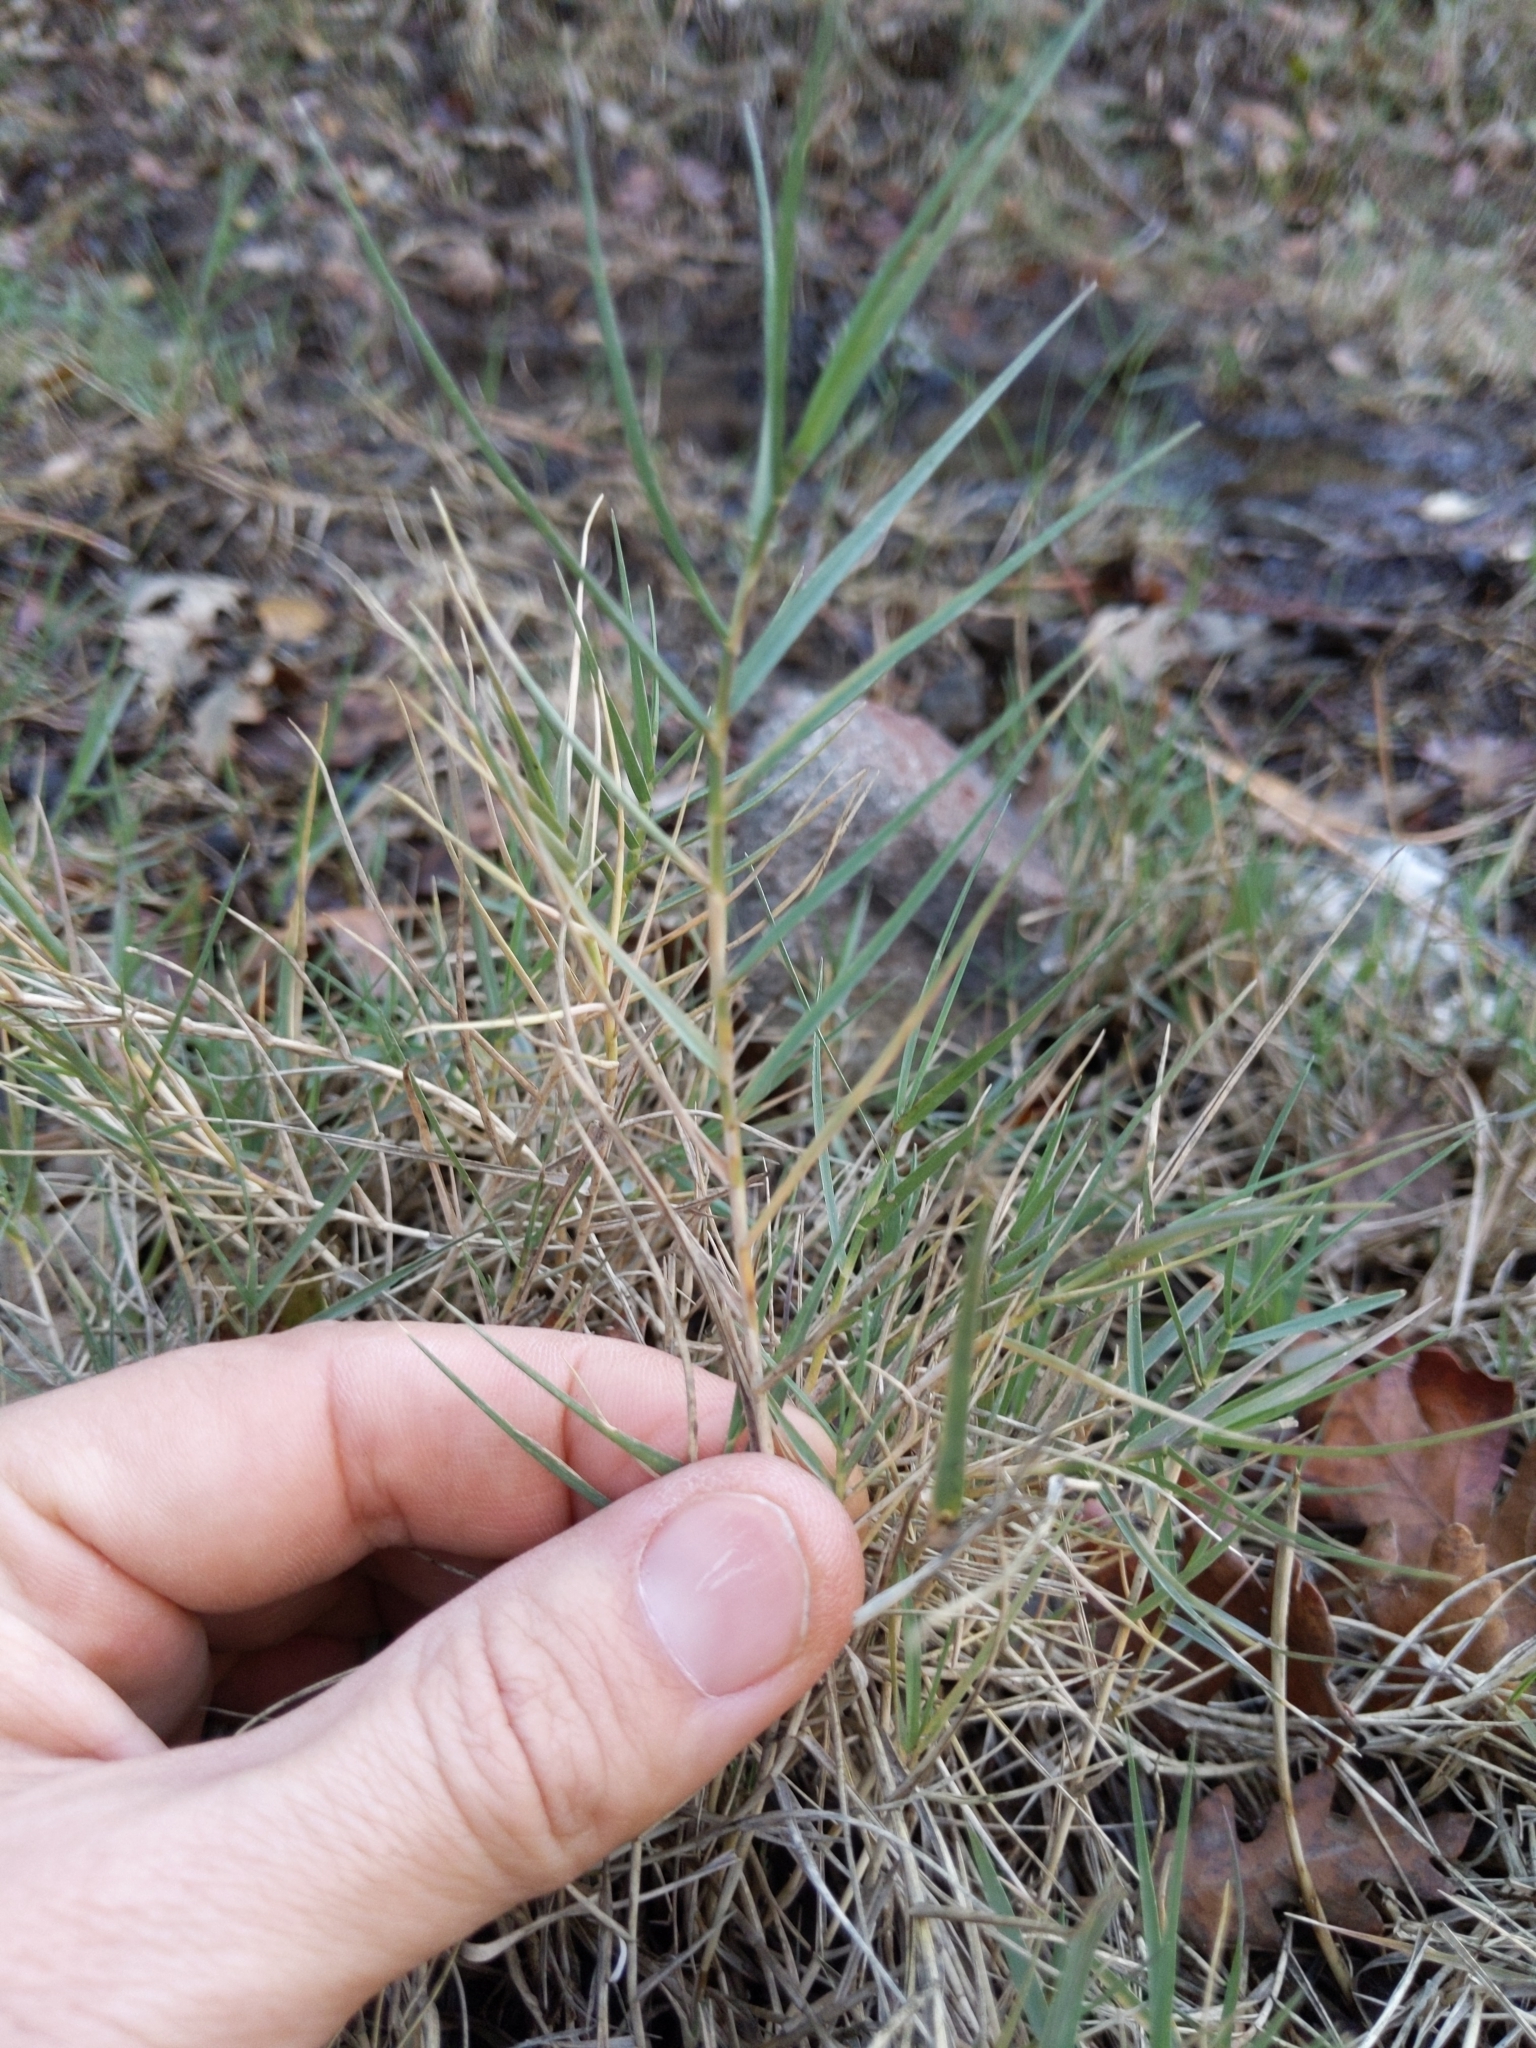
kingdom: Plantae
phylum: Tracheophyta
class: Liliopsida
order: Poales
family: Poaceae
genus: Distichlis
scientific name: Distichlis spicata
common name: Saltgrass
